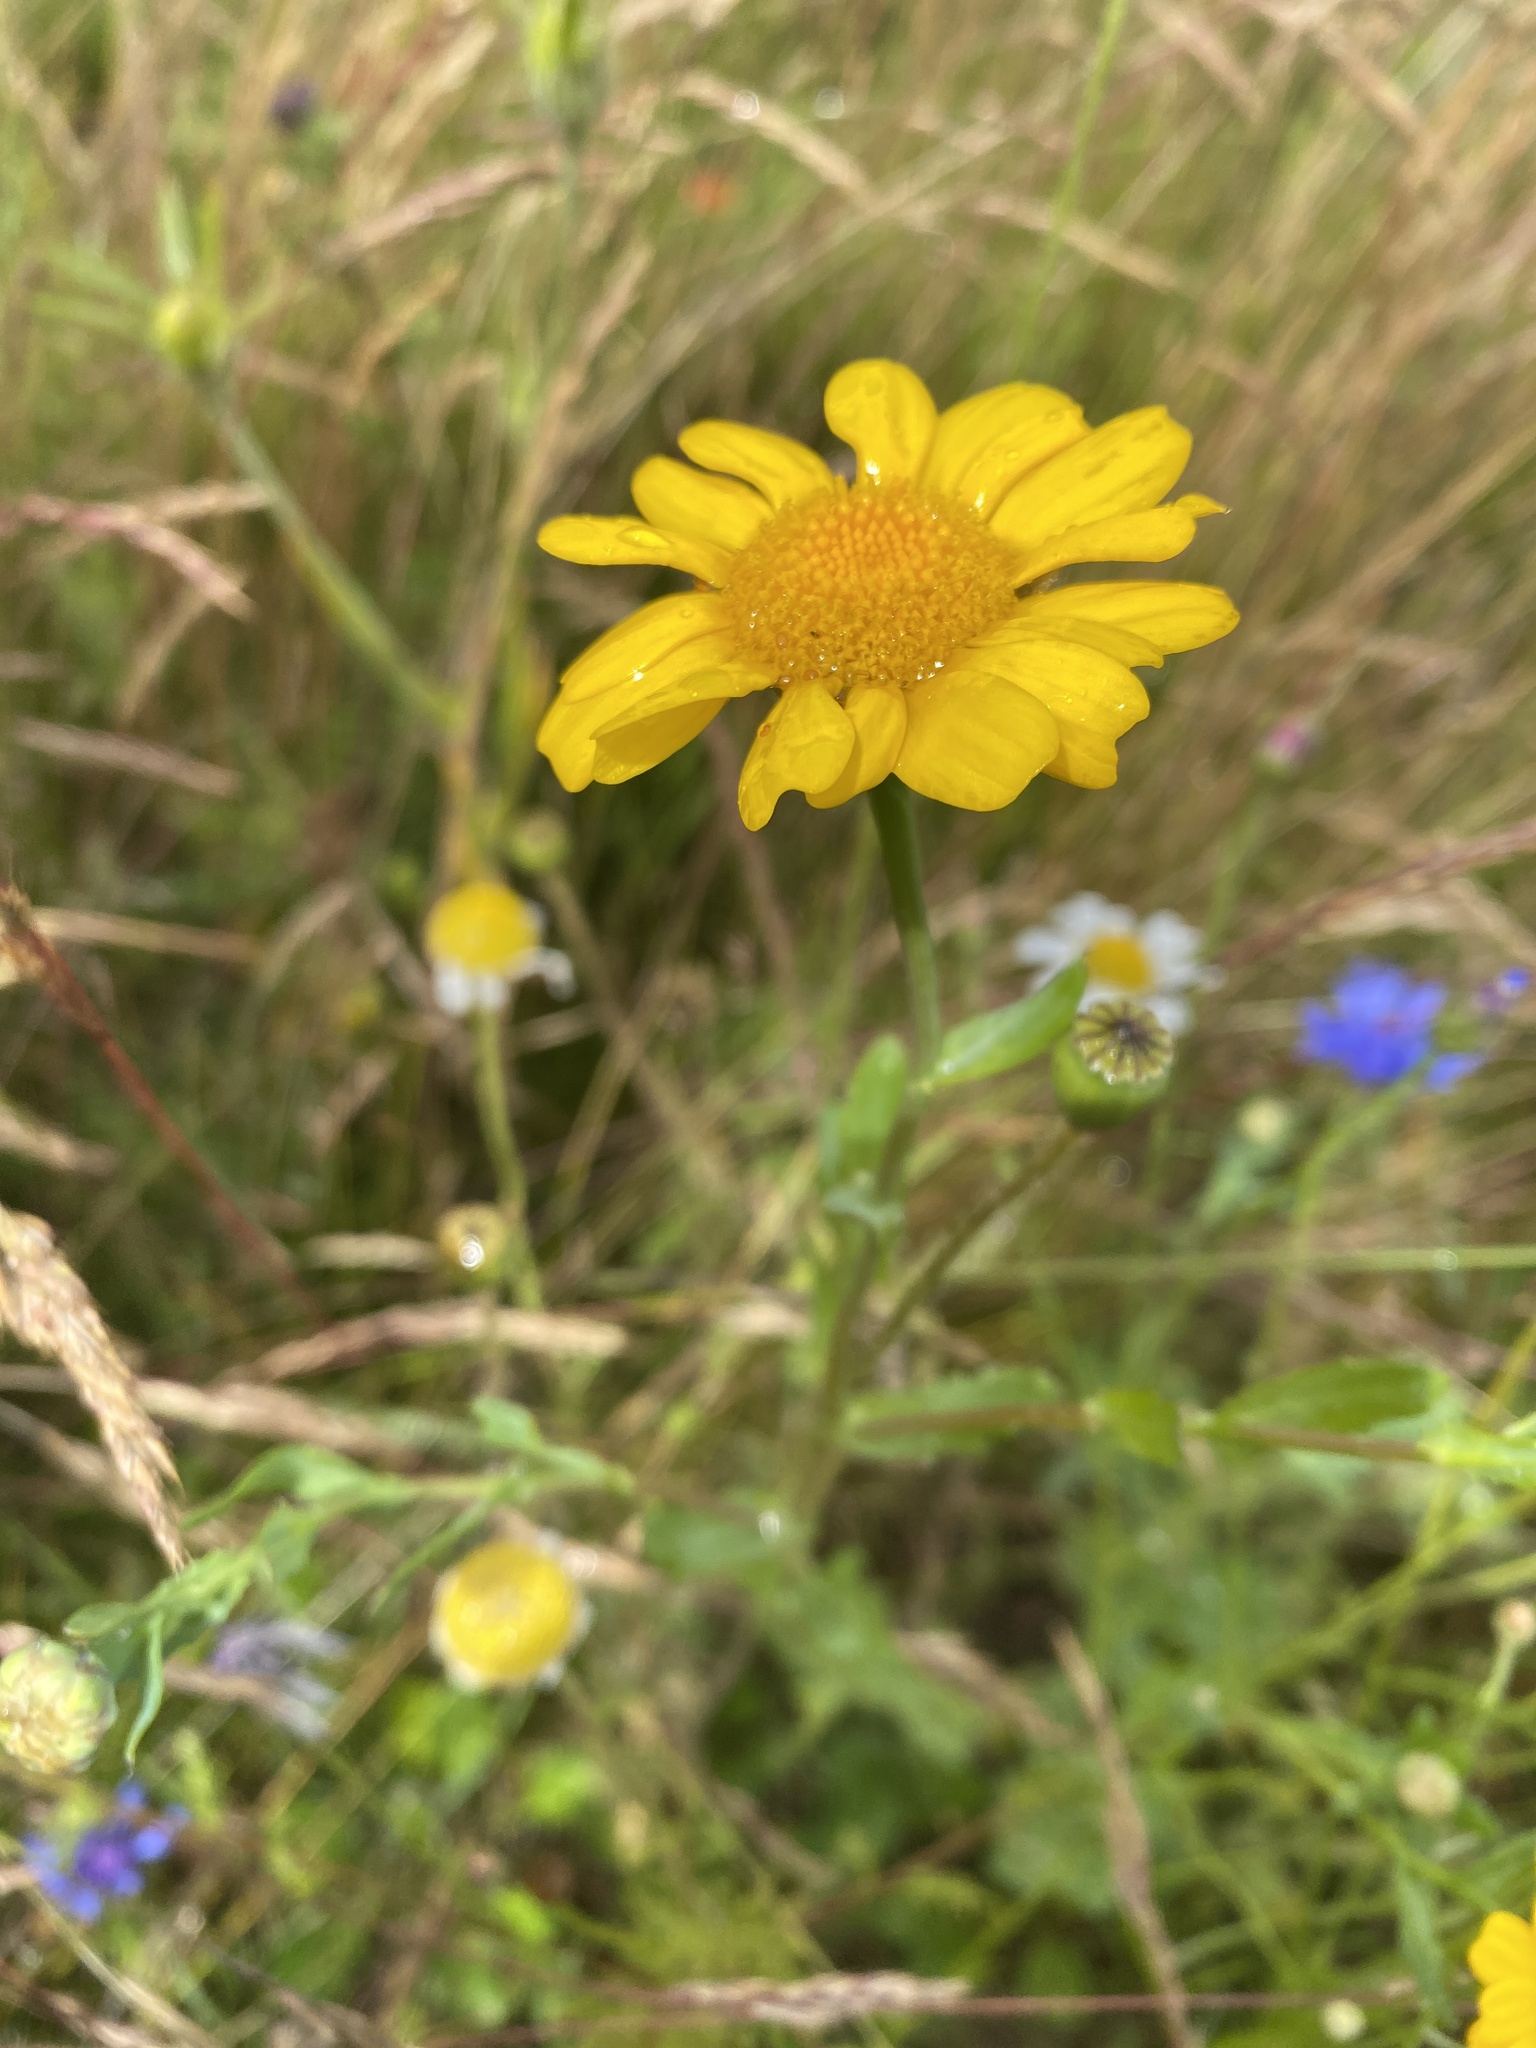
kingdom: Plantae
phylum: Tracheophyta
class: Magnoliopsida
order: Asterales
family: Asteraceae
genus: Glebionis
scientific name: Glebionis segetum
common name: Corndaisy
